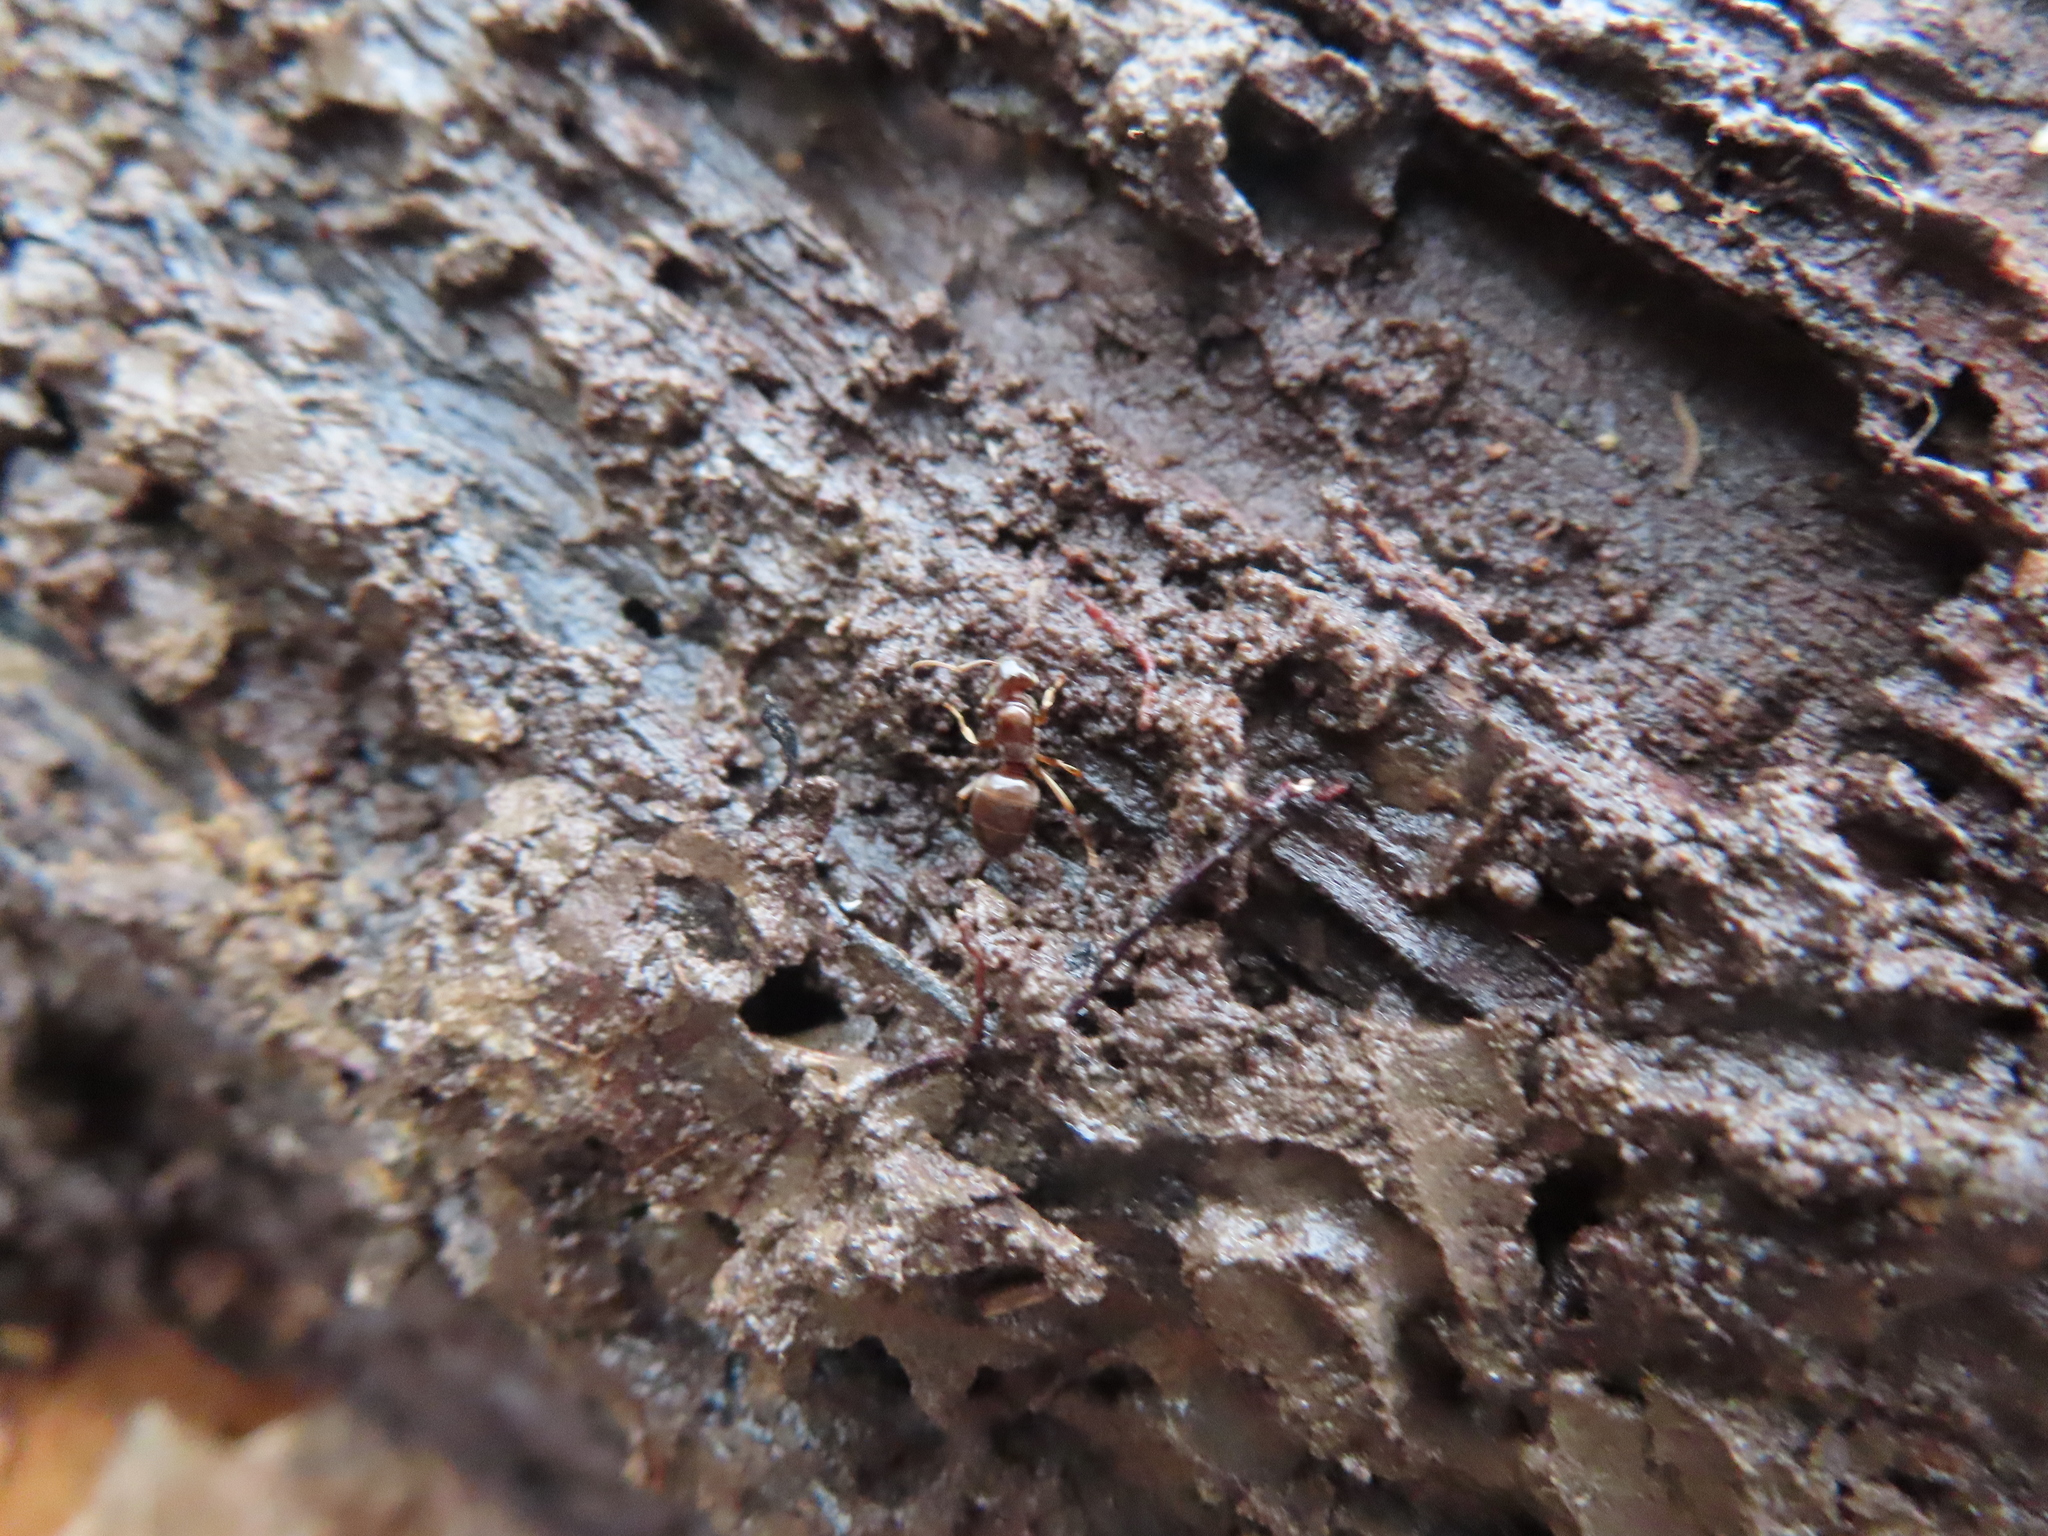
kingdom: Animalia
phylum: Arthropoda
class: Insecta
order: Hymenoptera
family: Formicidae
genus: Lasius
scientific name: Lasius aphidicola
